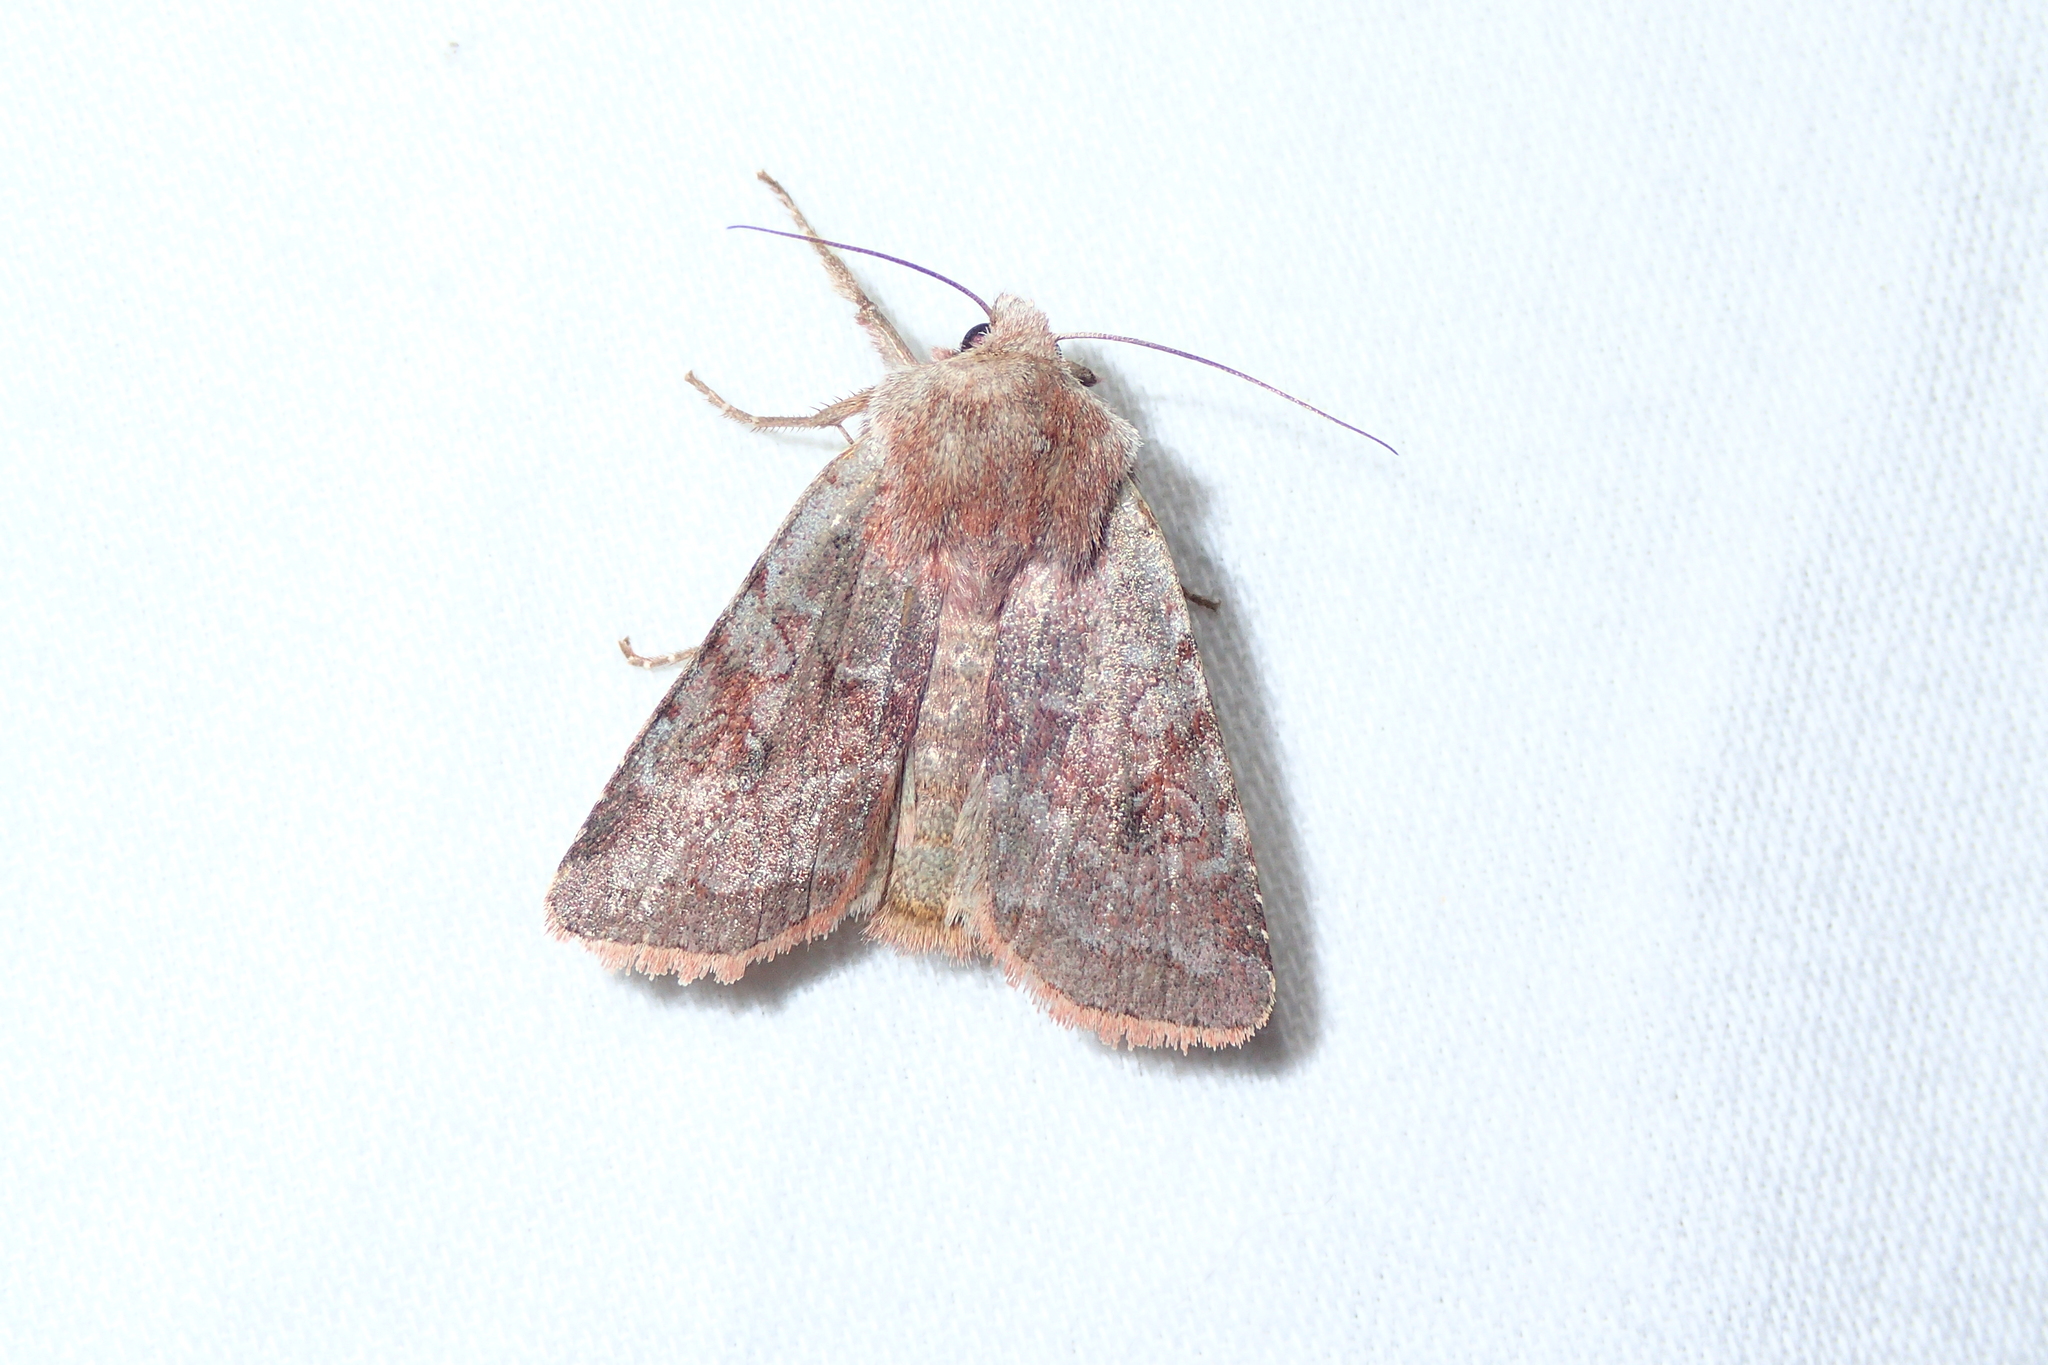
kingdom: Animalia
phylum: Arthropoda
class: Insecta
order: Lepidoptera
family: Noctuidae
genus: Cerastis
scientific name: Cerastis rubricosa
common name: Red chestnut
